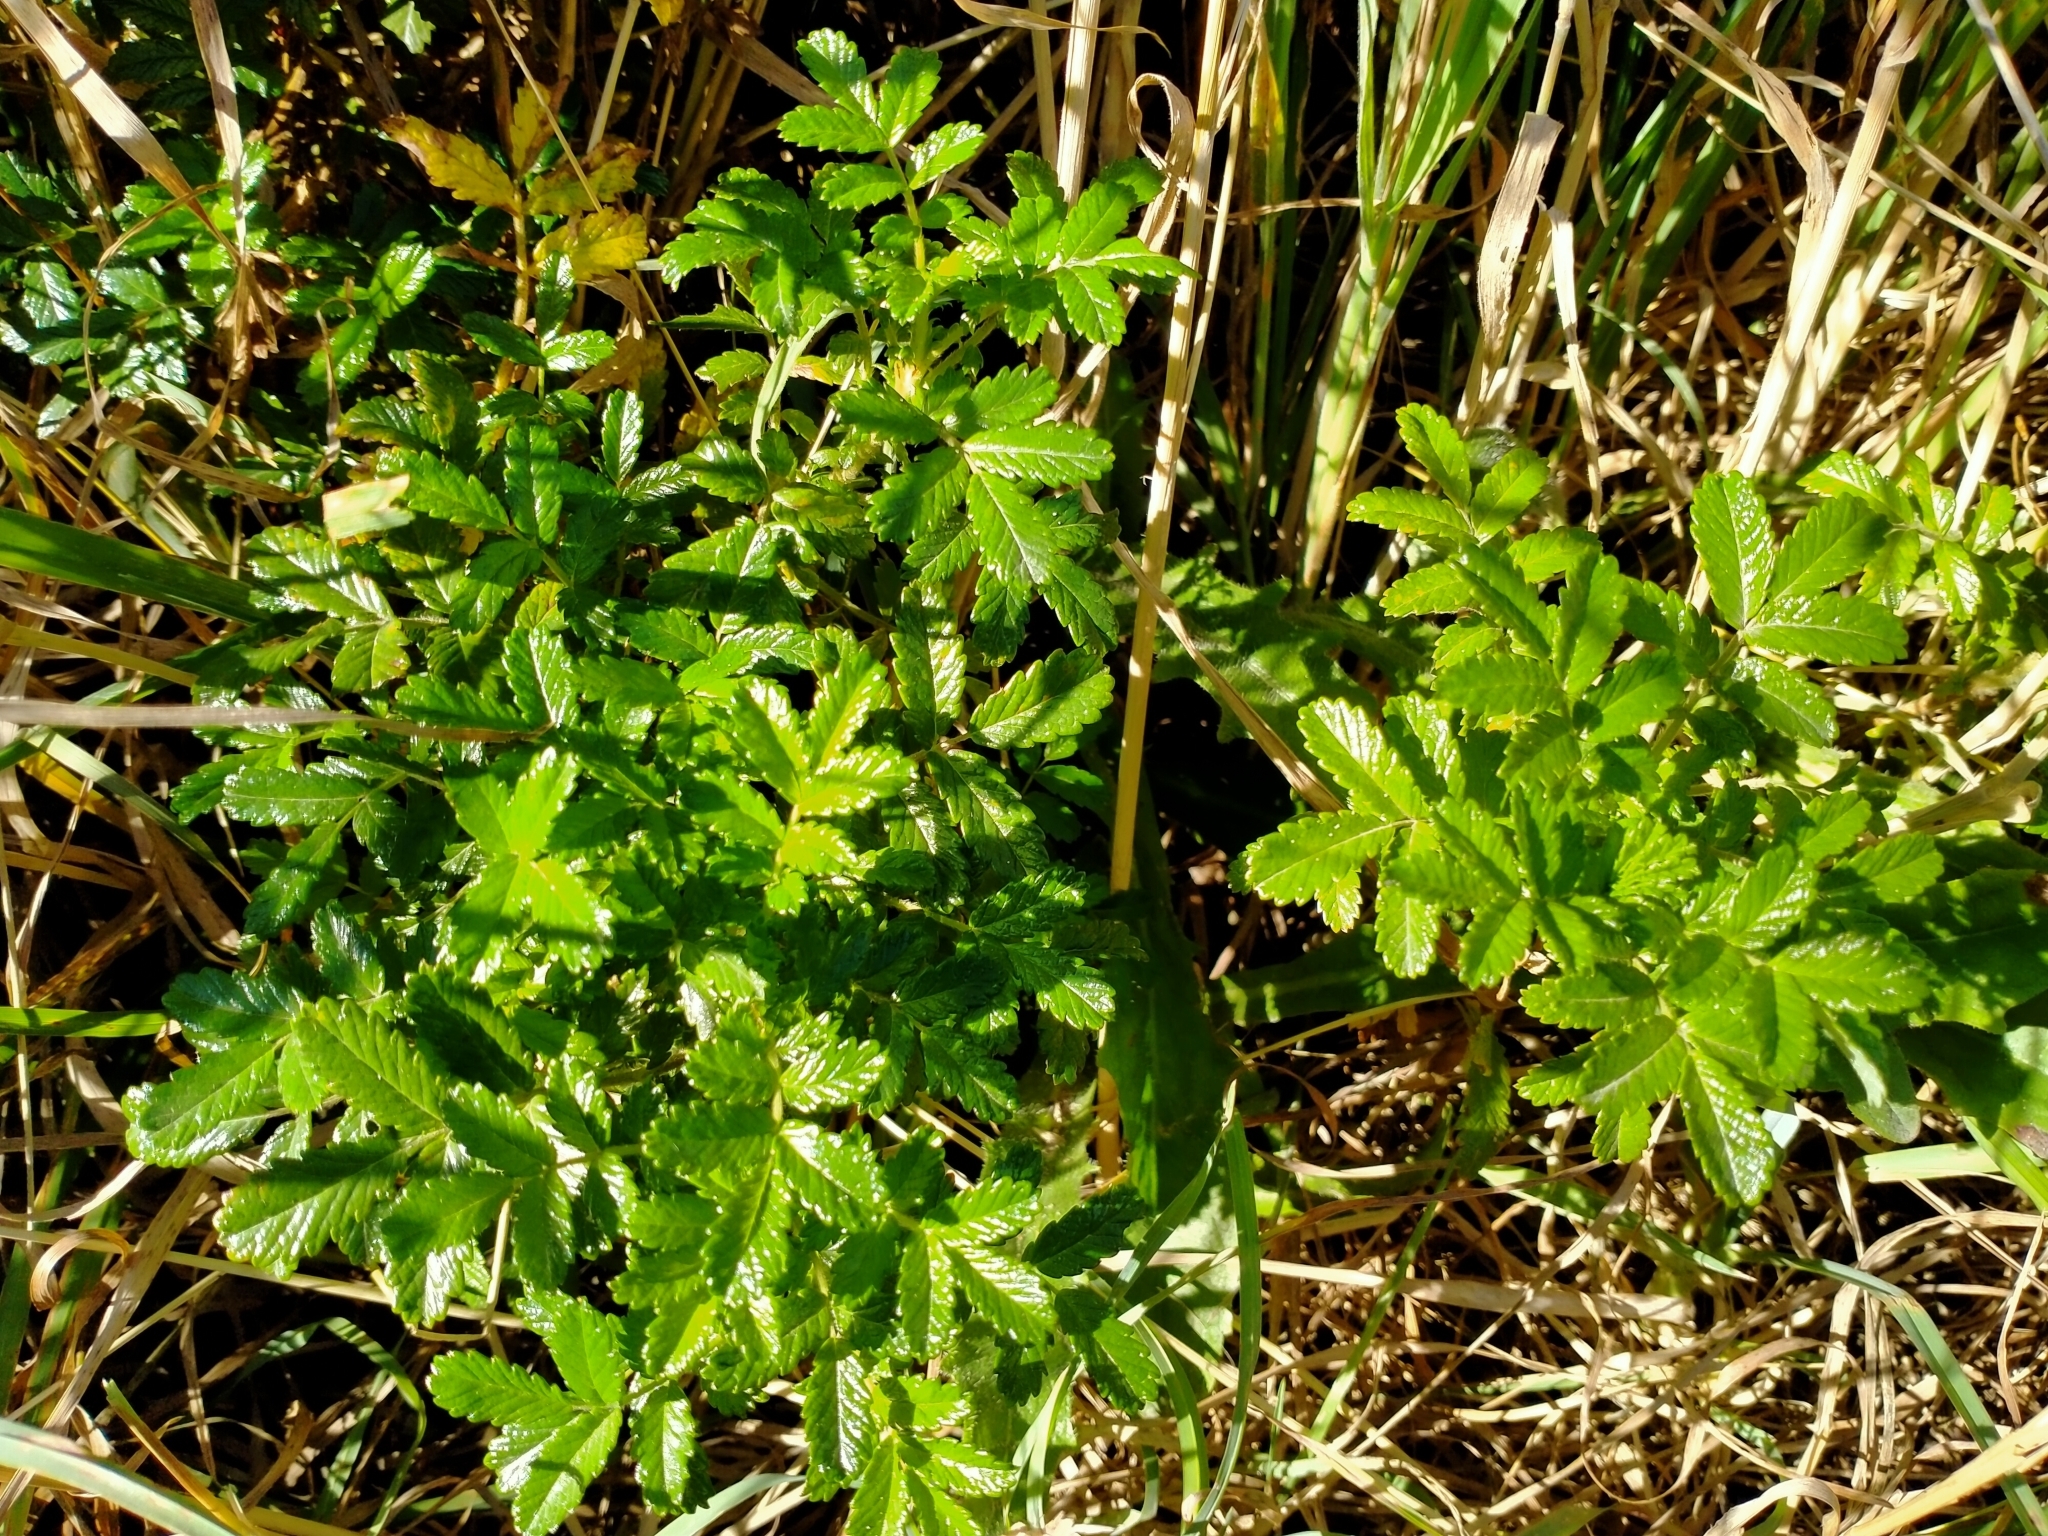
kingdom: Plantae
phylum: Tracheophyta
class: Magnoliopsida
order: Rosales
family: Rosaceae
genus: Acaena
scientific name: Acaena pallida
